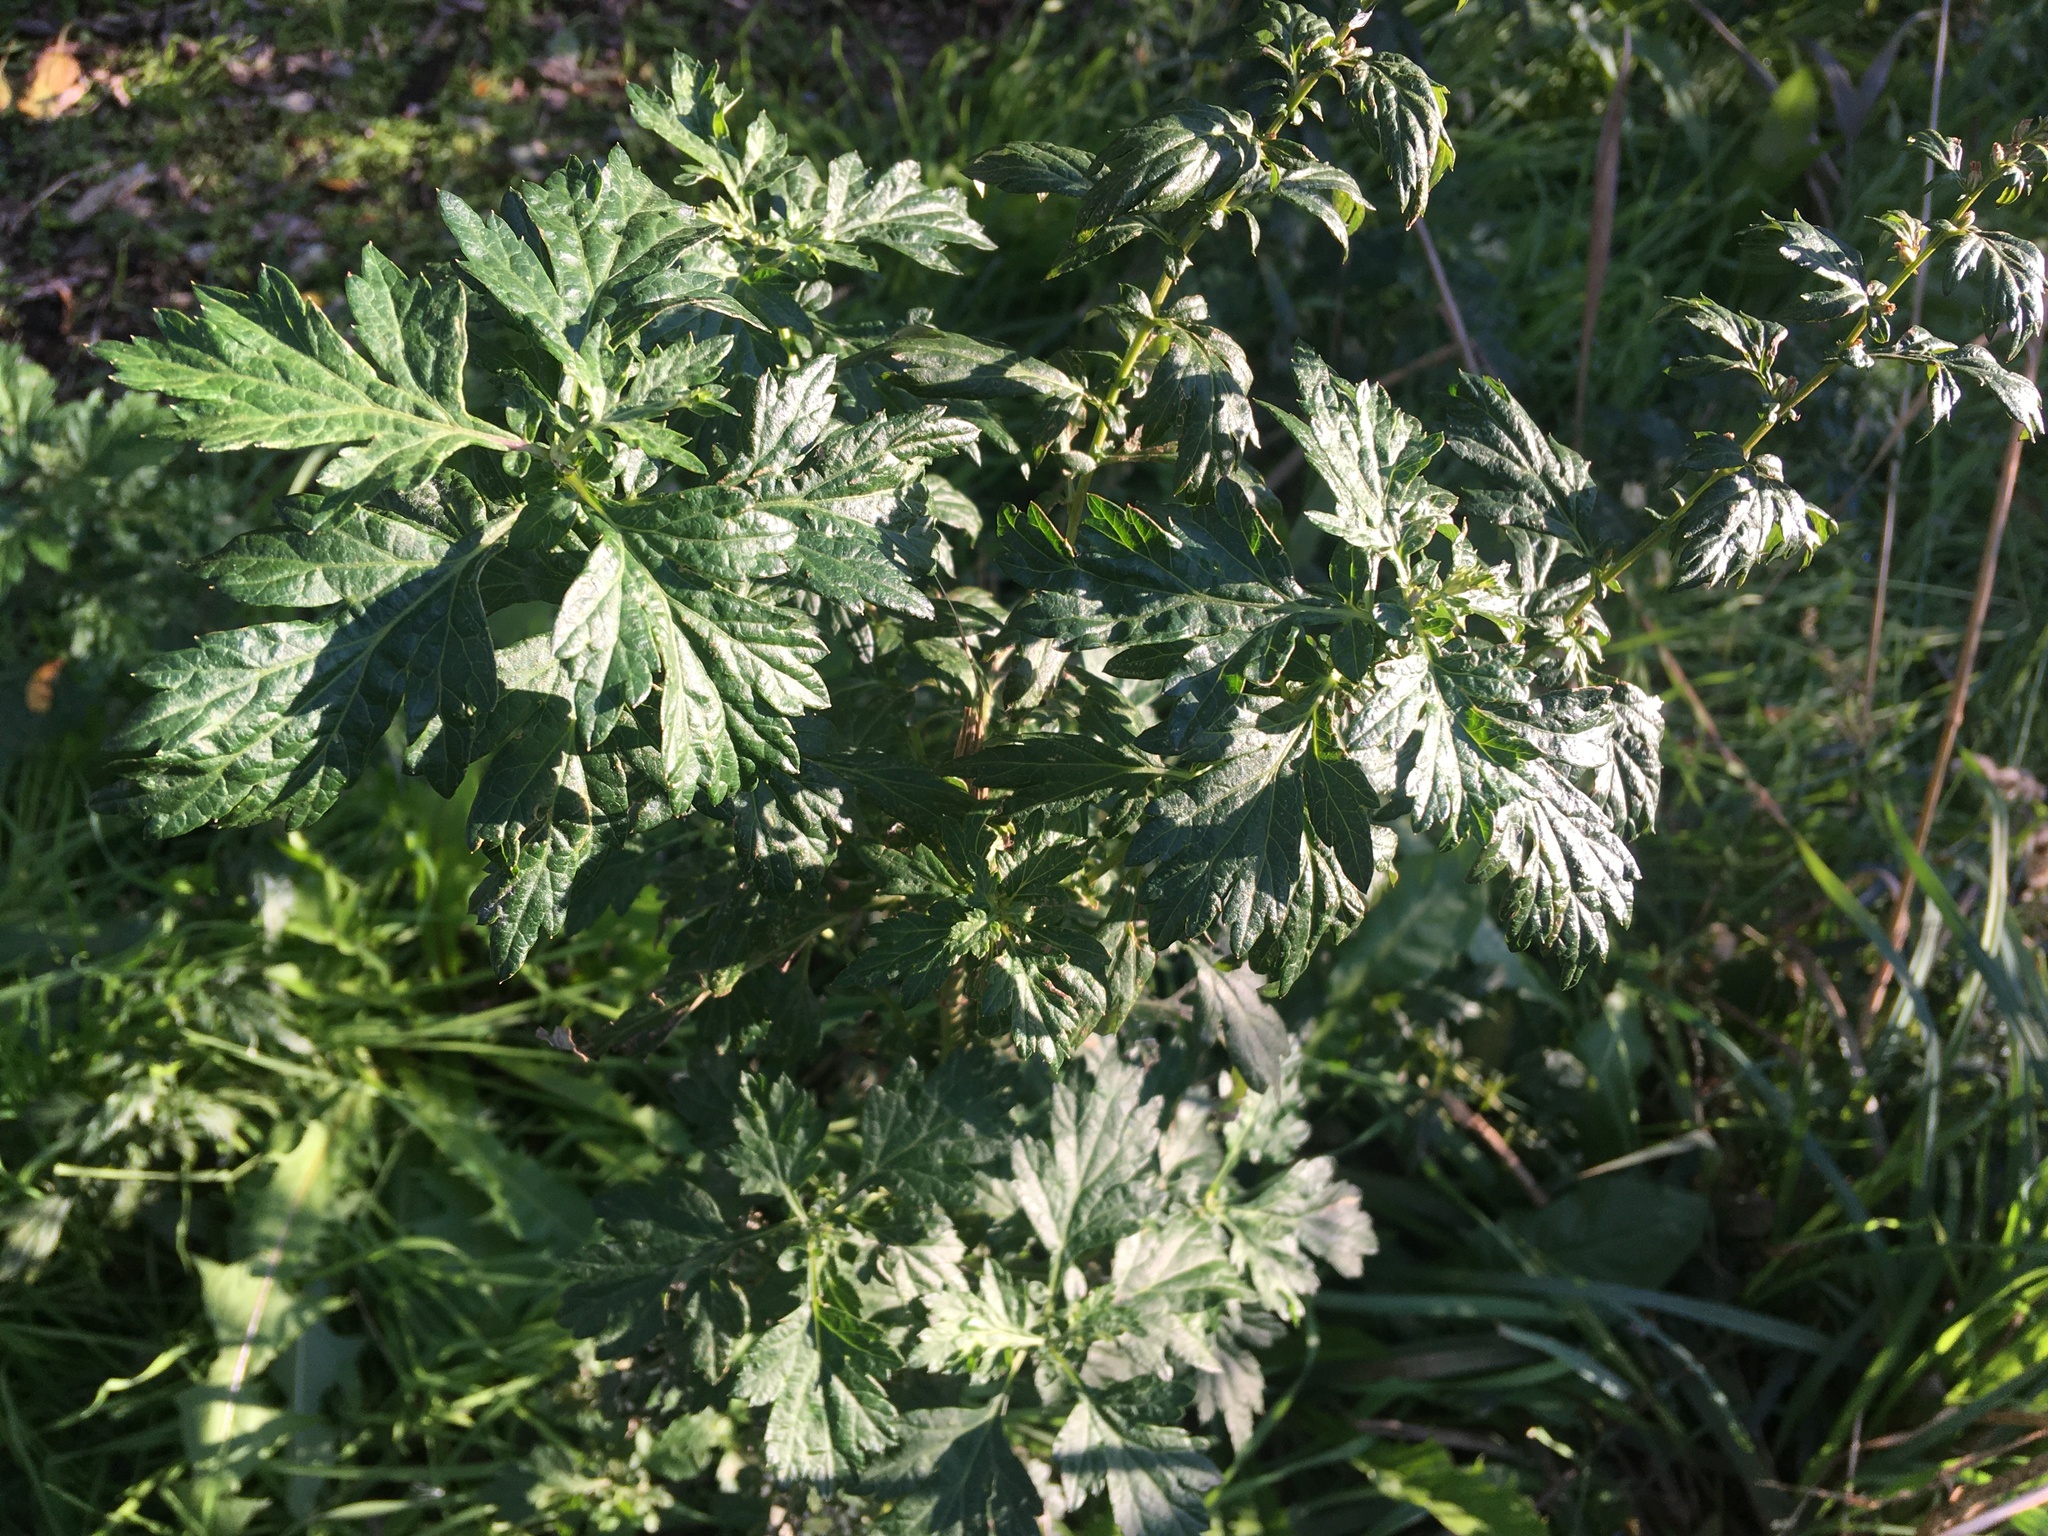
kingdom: Plantae
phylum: Tracheophyta
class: Magnoliopsida
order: Asterales
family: Asteraceae
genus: Artemisia
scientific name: Artemisia vulgaris
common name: Mugwort
